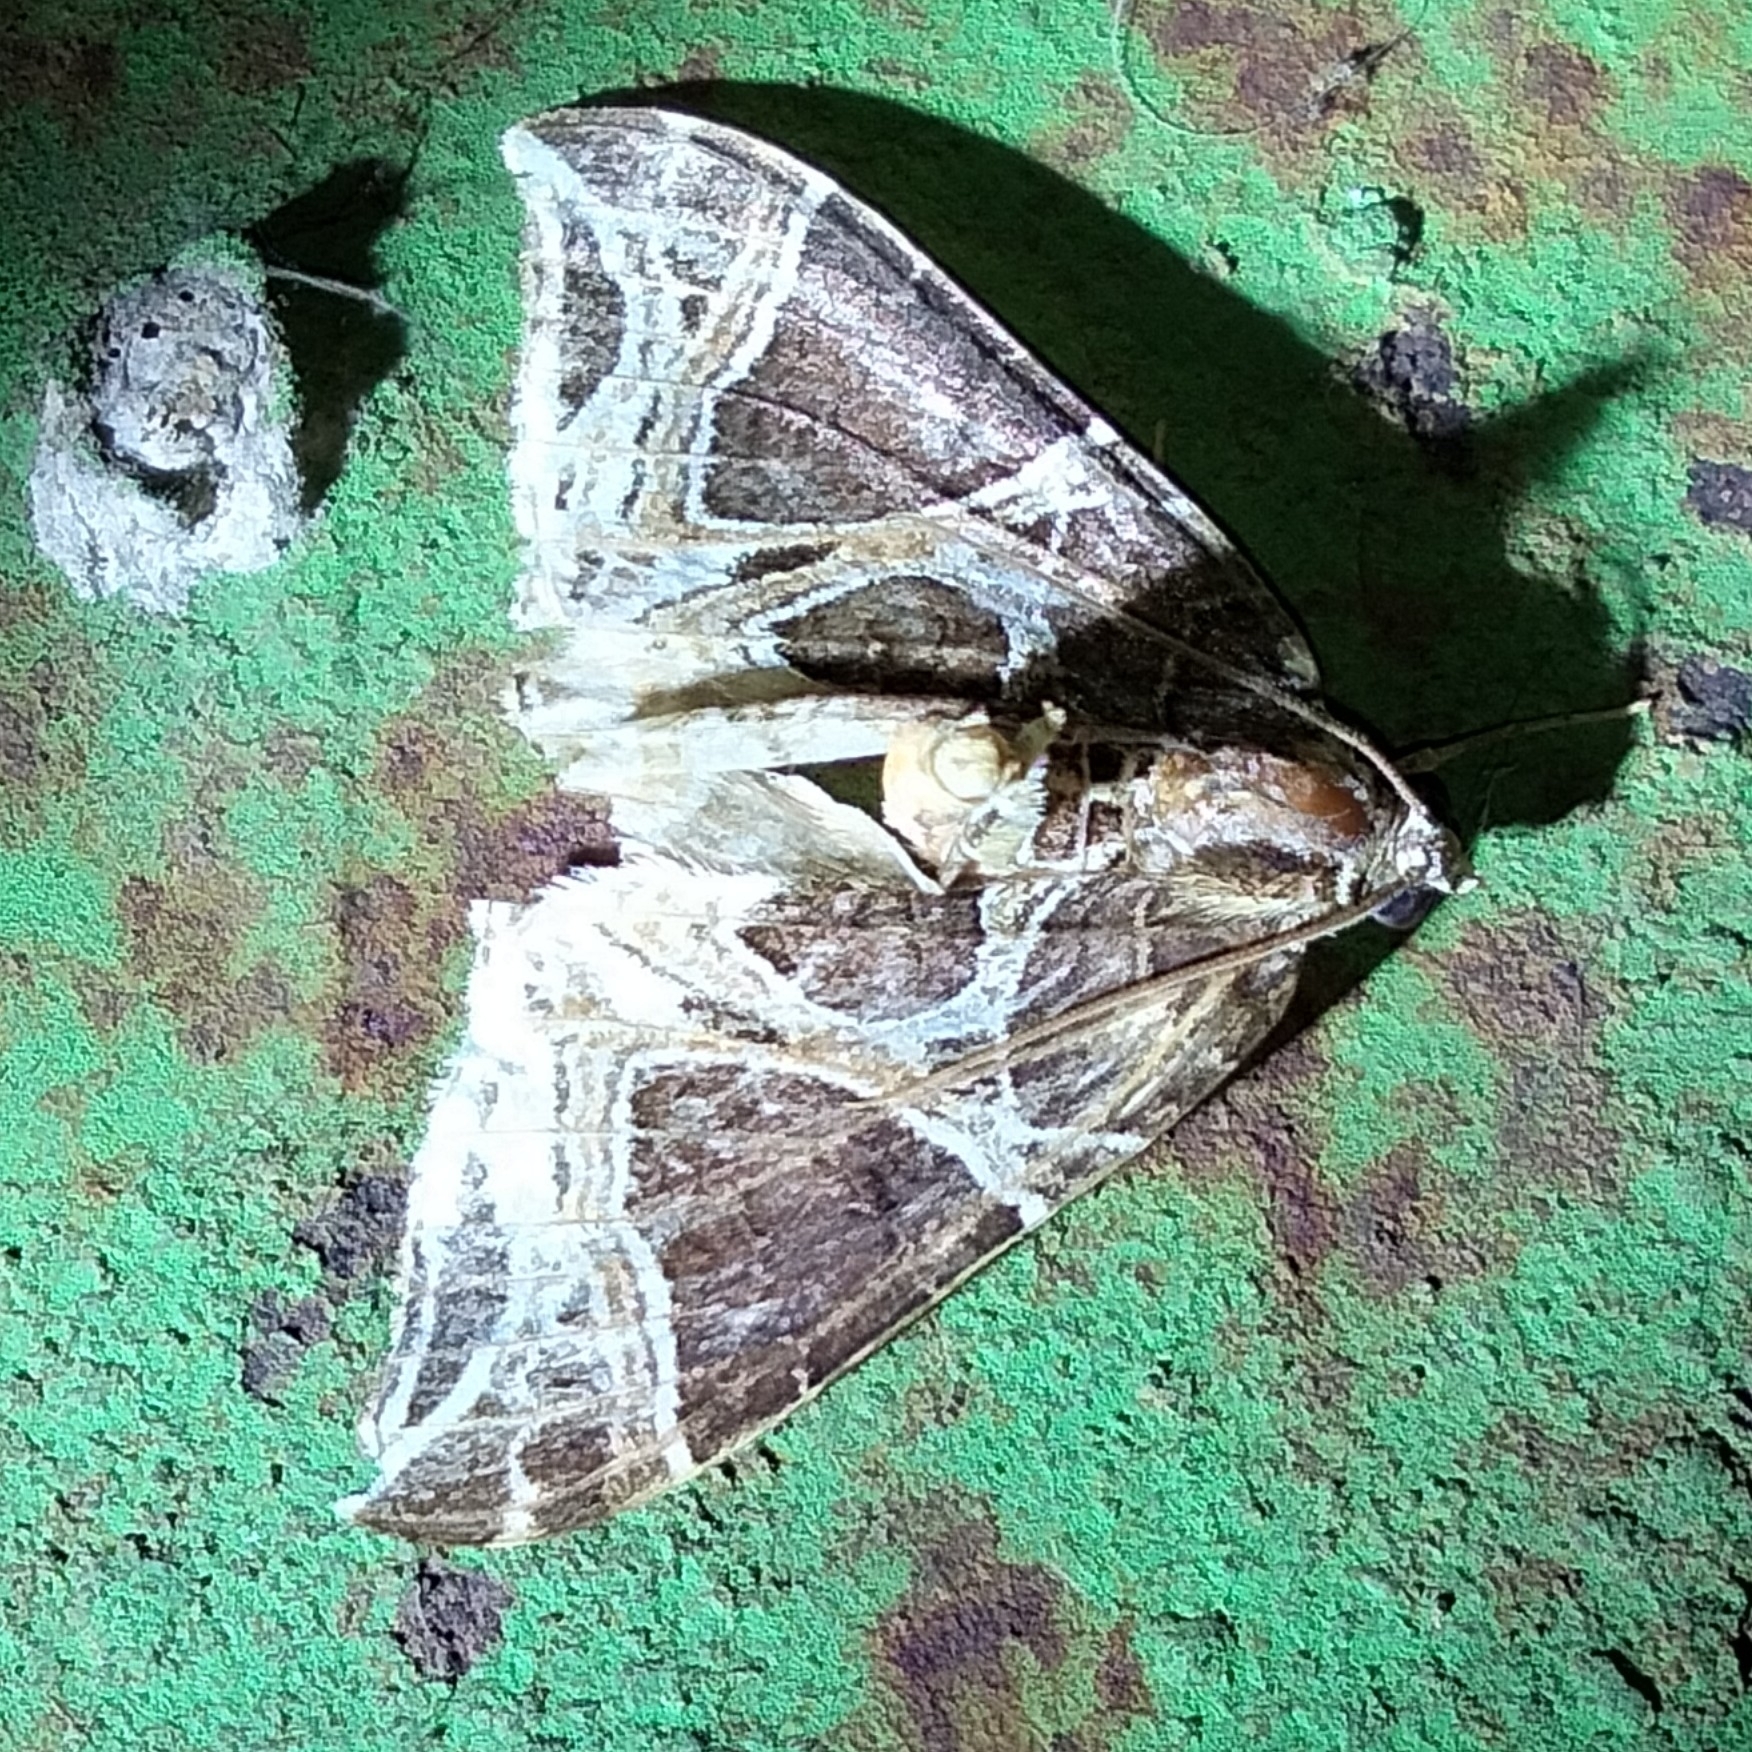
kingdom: Animalia
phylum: Arthropoda
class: Insecta
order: Lepidoptera
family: Geometridae
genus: Ecliptopera
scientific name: Ecliptopera rectilinea
